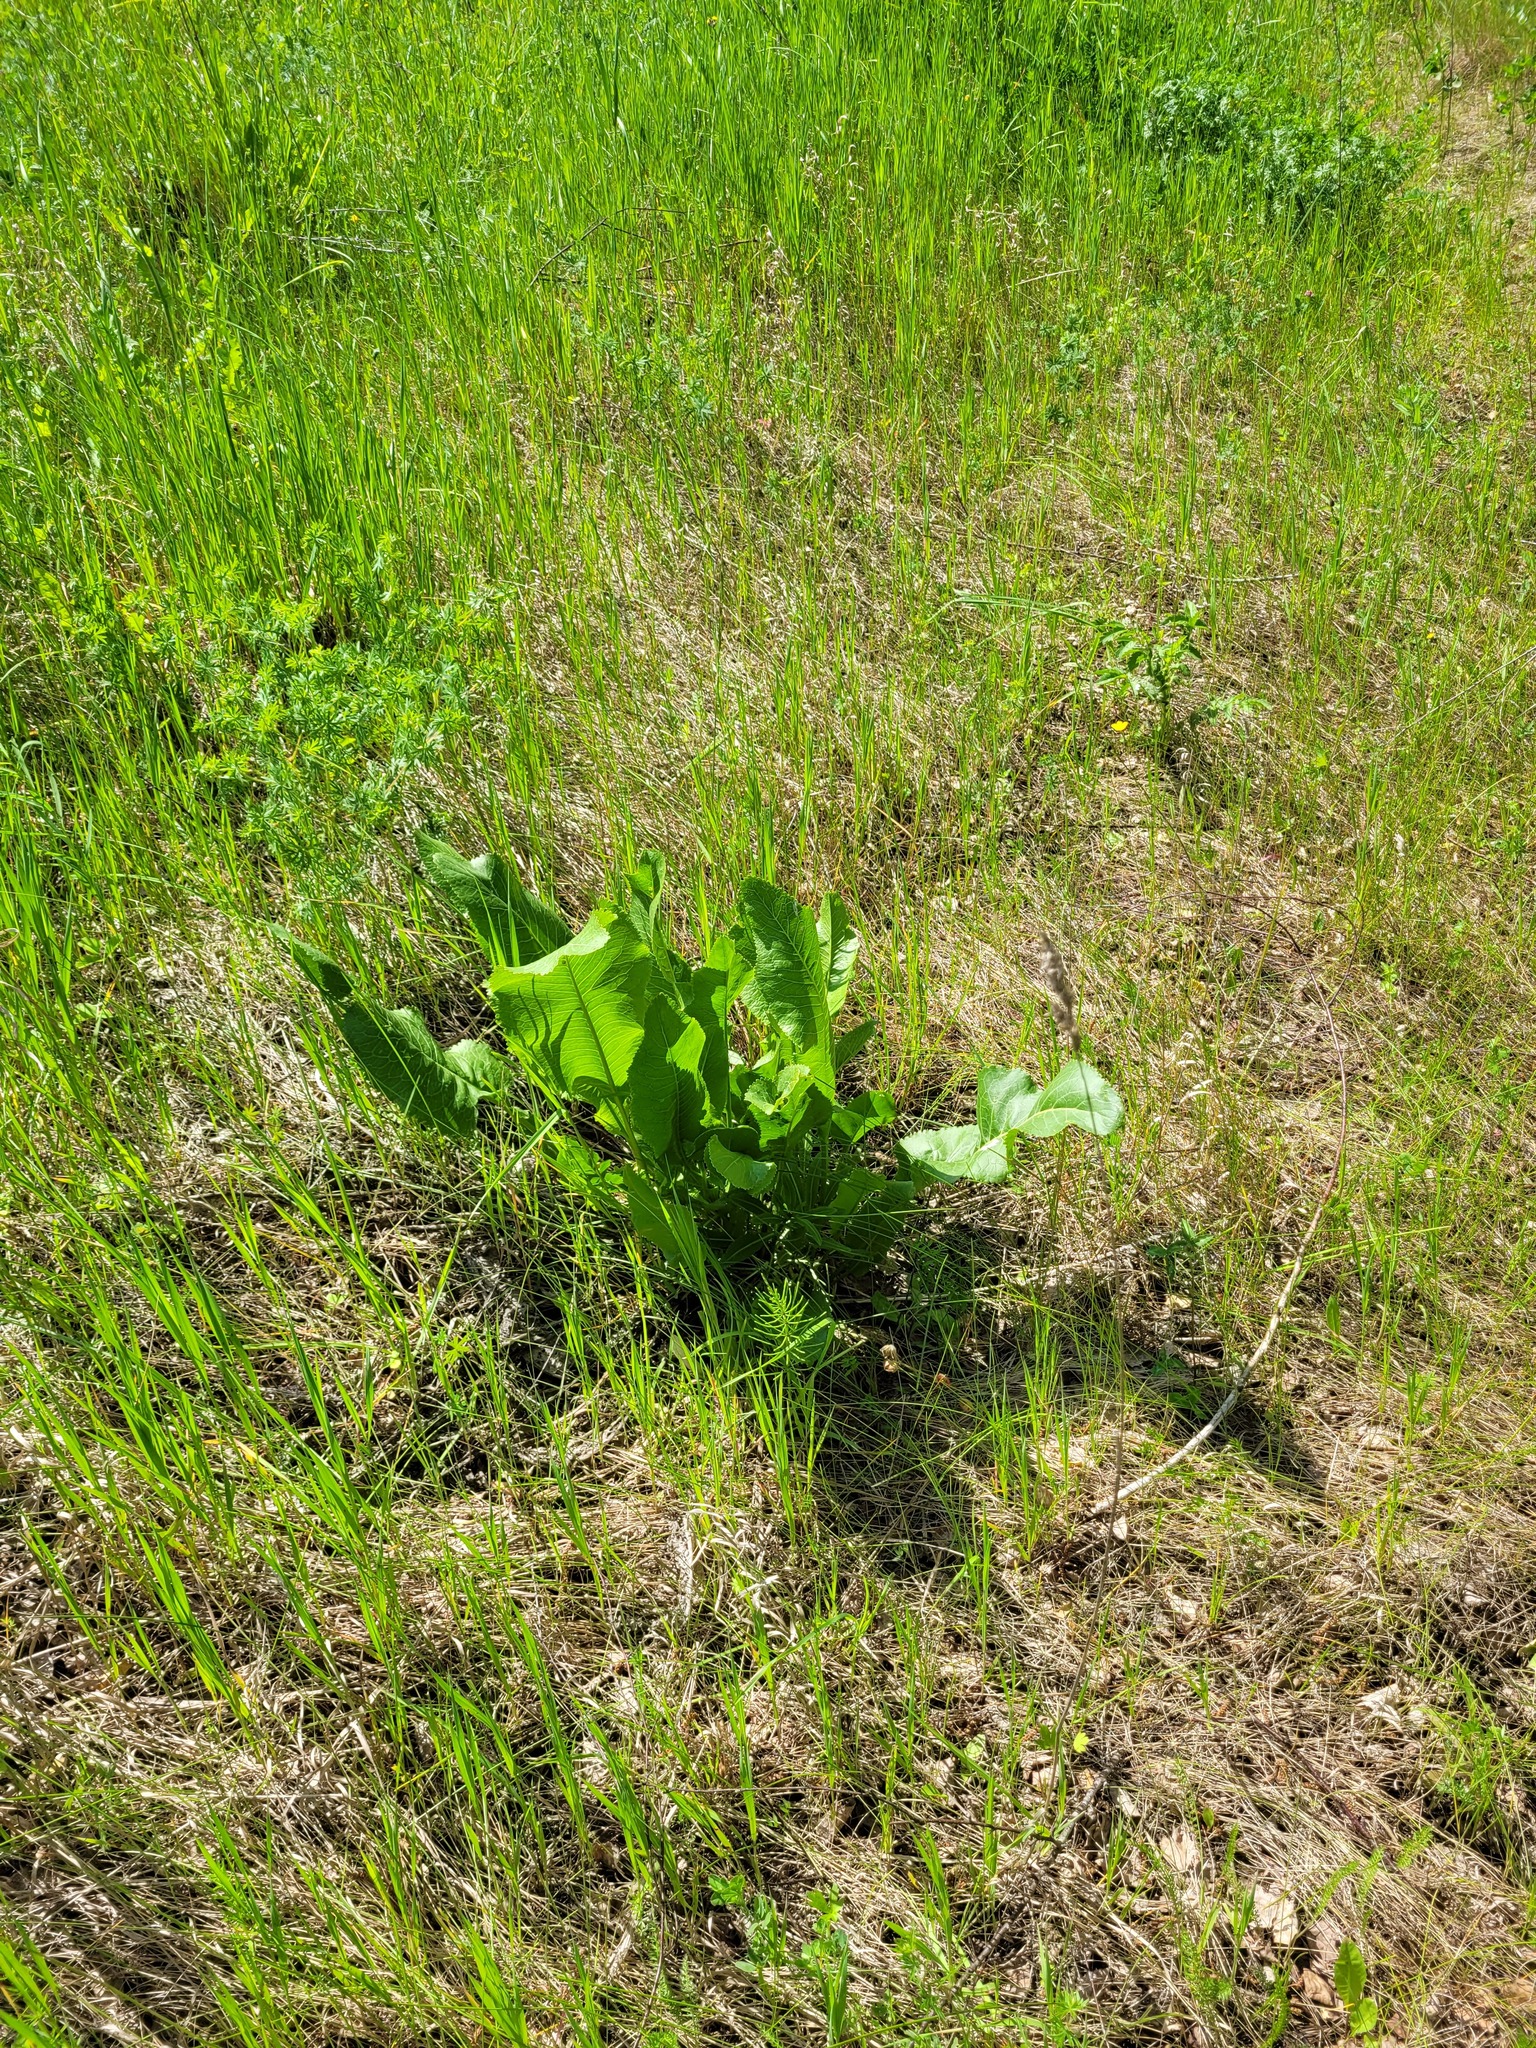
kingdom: Plantae
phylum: Tracheophyta
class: Magnoliopsida
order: Brassicales
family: Brassicaceae
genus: Armoracia
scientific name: Armoracia rusticana
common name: Horseradish
